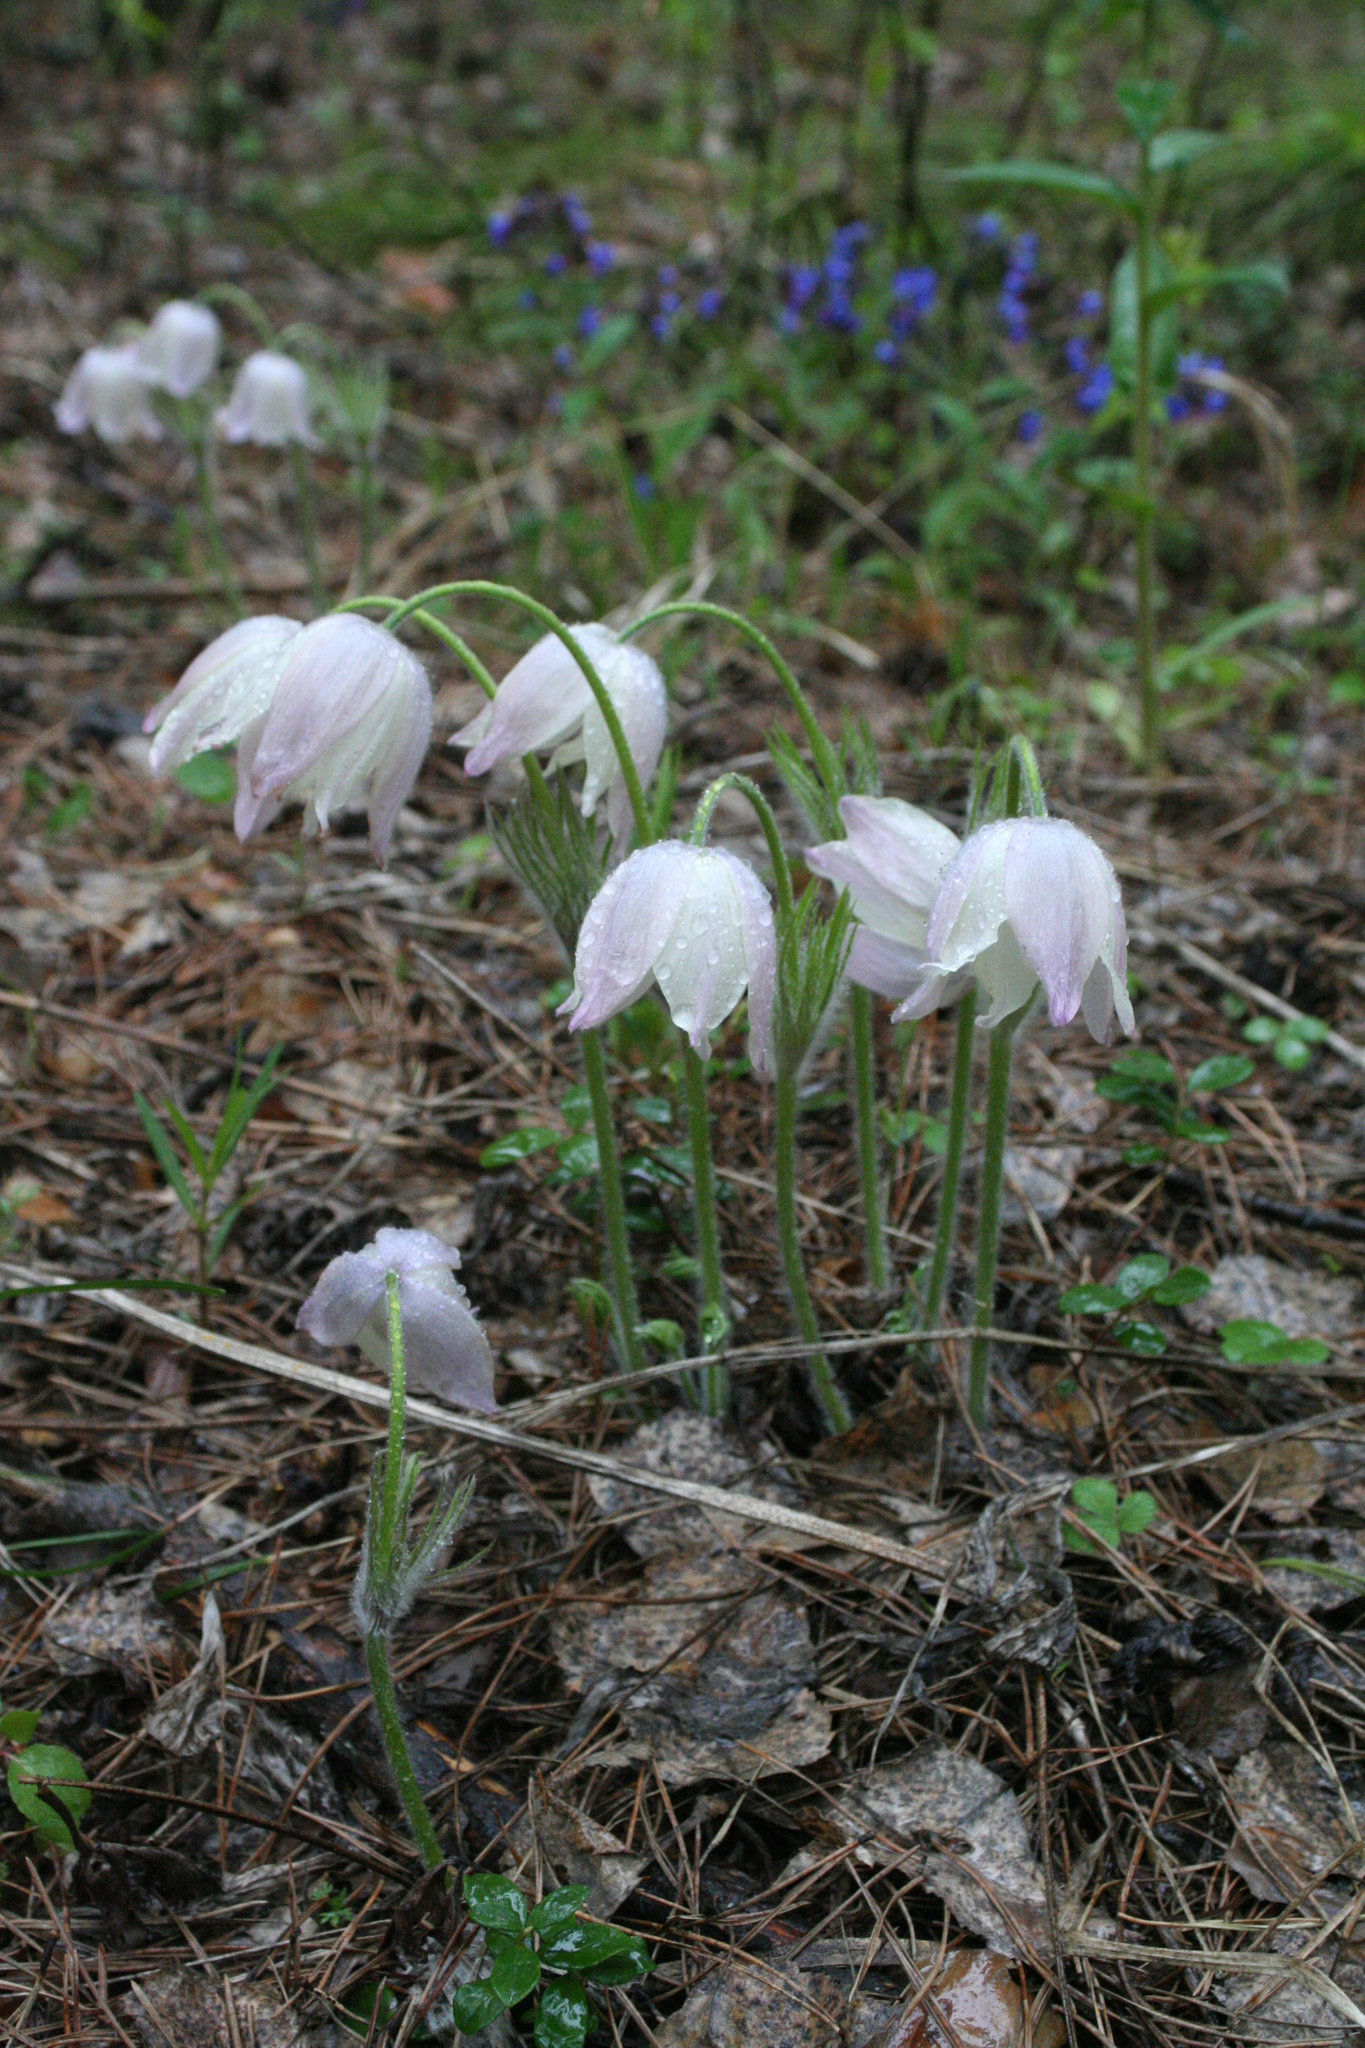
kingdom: Plantae
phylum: Tracheophyta
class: Magnoliopsida
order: Ranunculales
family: Ranunculaceae
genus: Pulsatilla
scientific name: Pulsatilla patens
